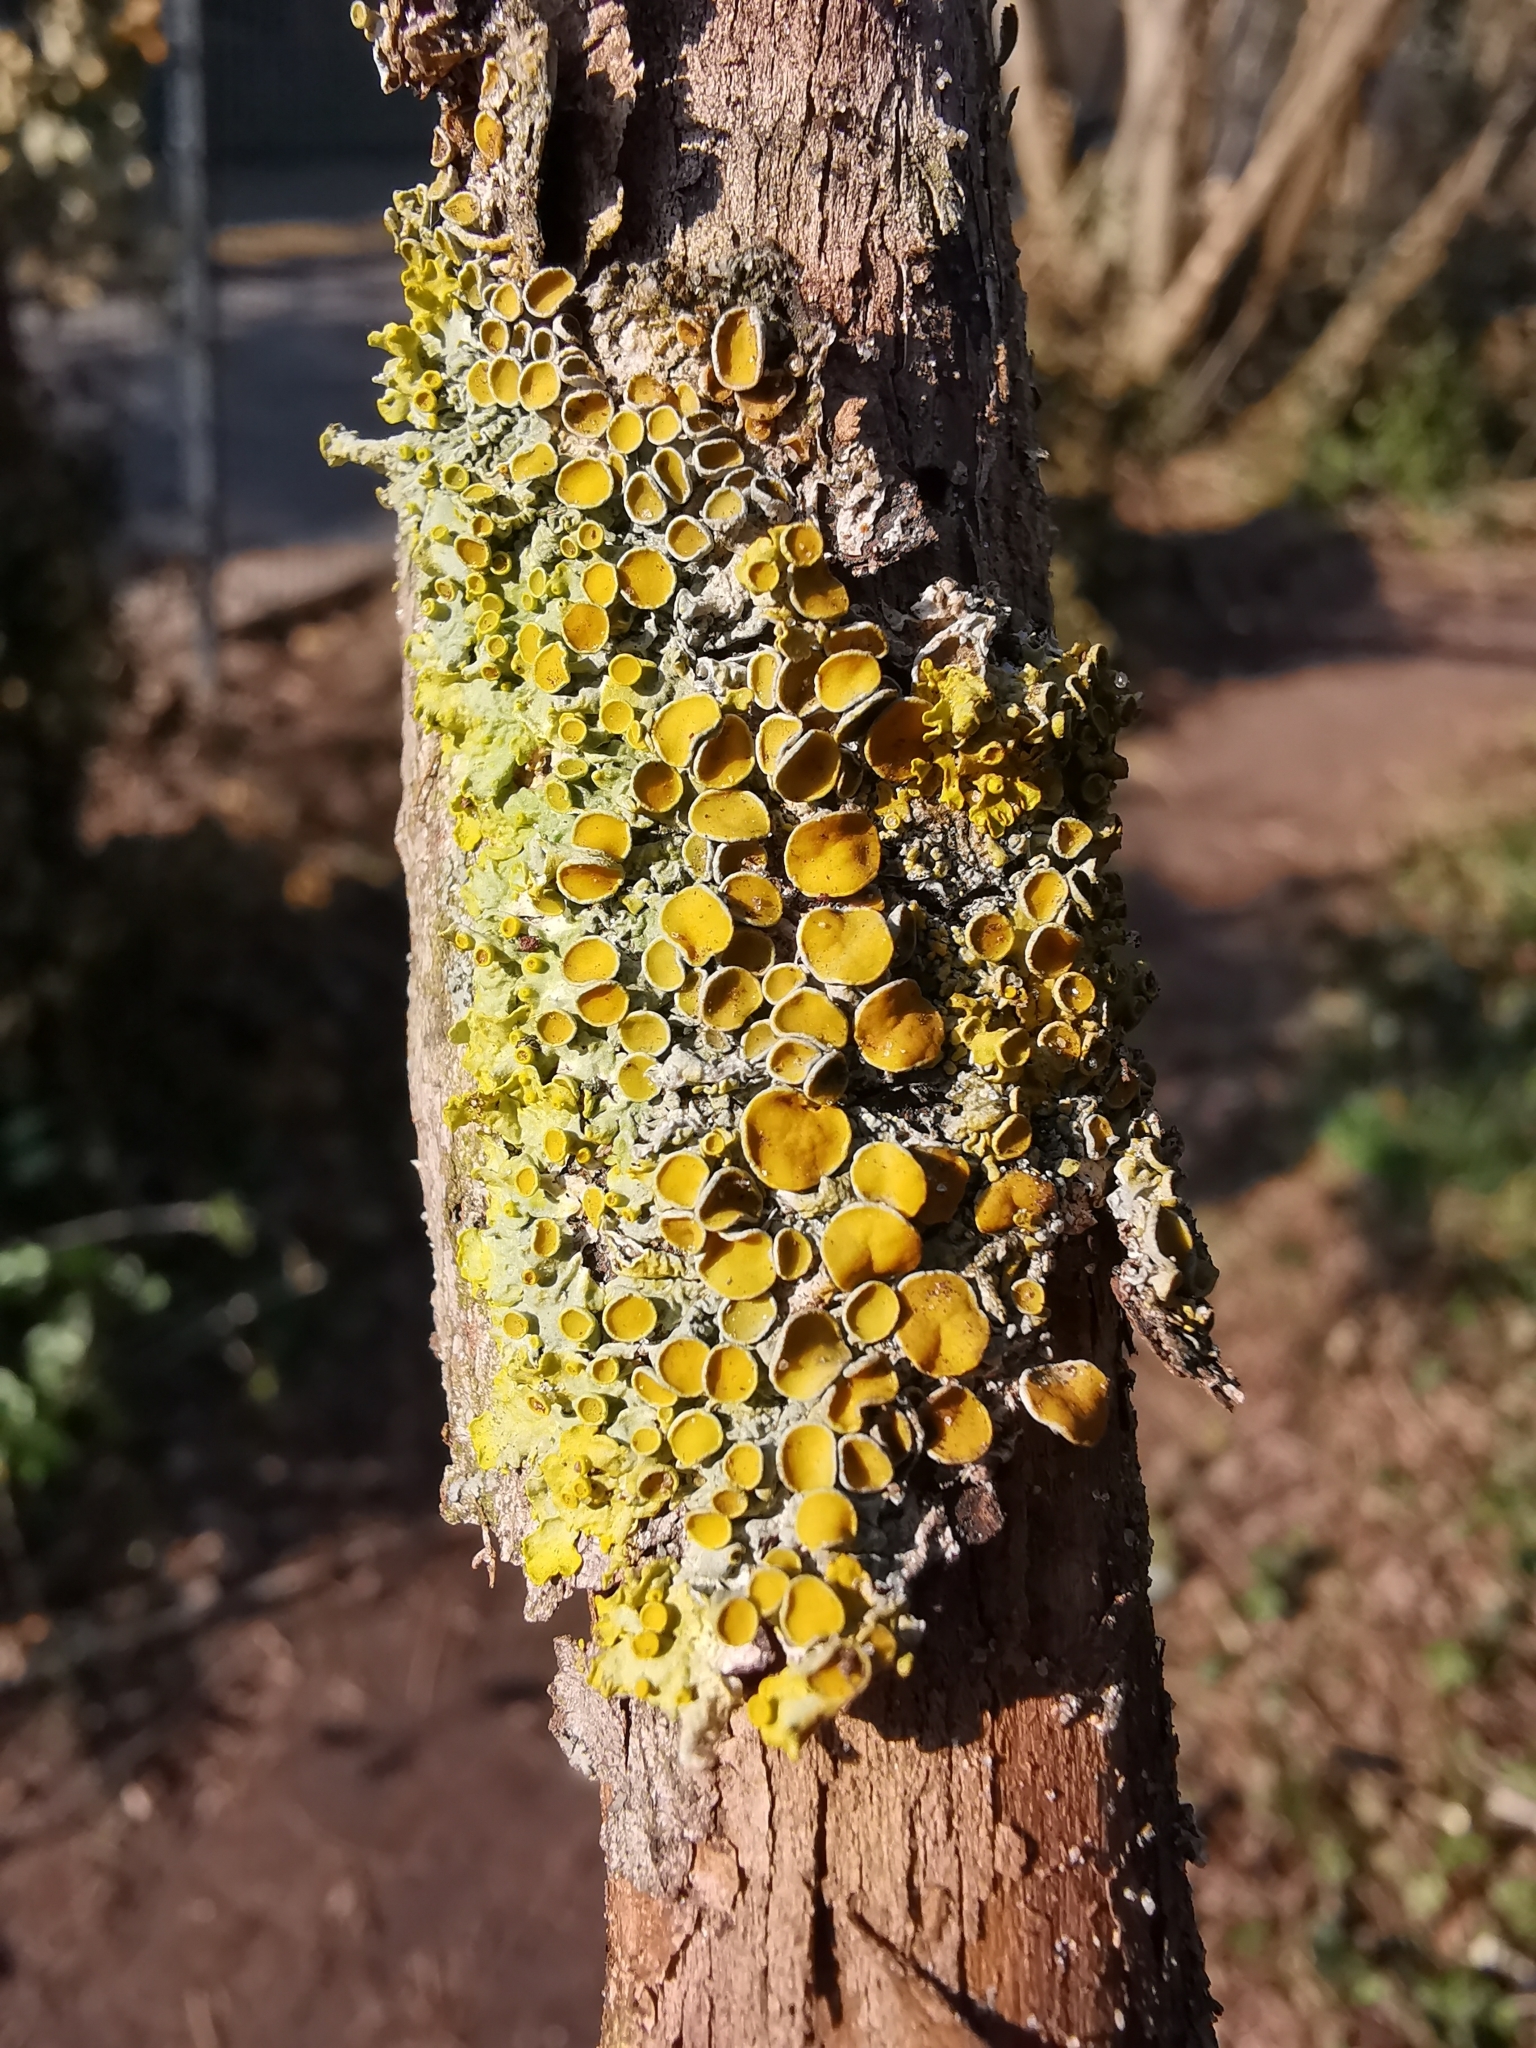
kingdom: Fungi
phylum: Ascomycota
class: Lecanoromycetes
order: Teloschistales
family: Teloschistaceae
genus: Xanthoria
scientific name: Xanthoria parietina
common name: Common orange lichen
